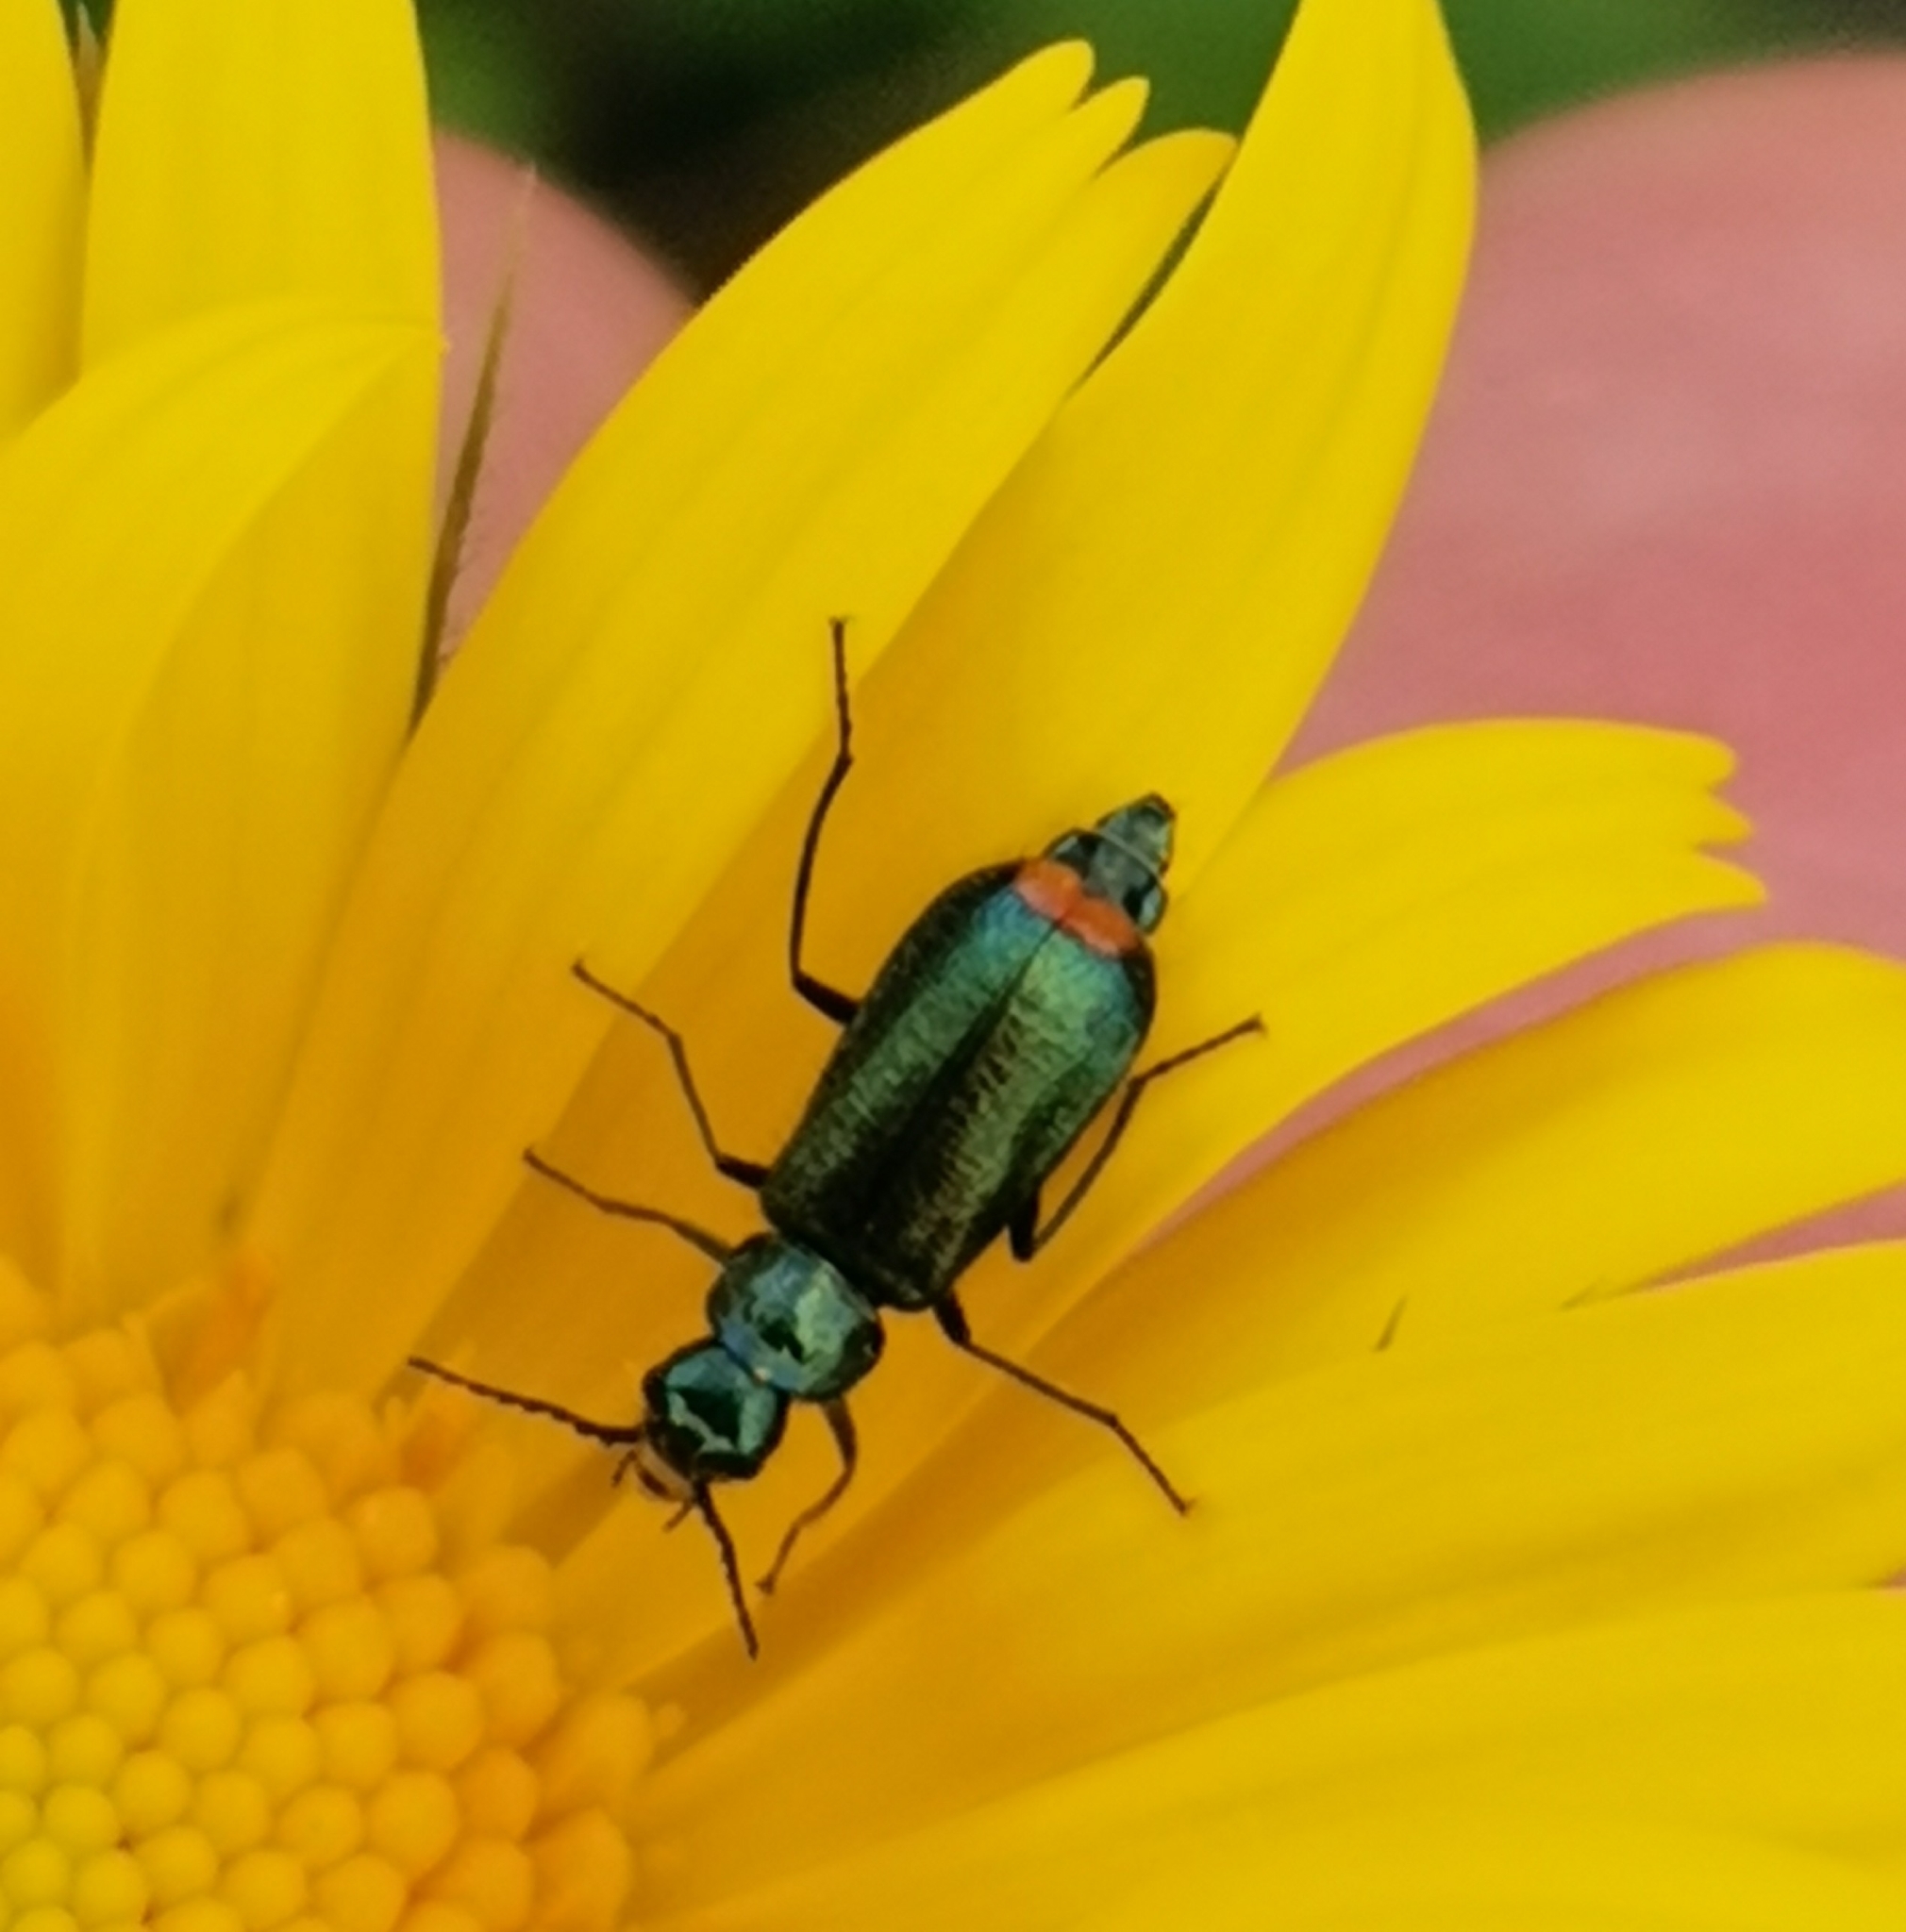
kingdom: Animalia
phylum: Arthropoda
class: Insecta
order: Coleoptera
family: Melyridae
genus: Malachius
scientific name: Malachius bipustulatus
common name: Malachite beetle
